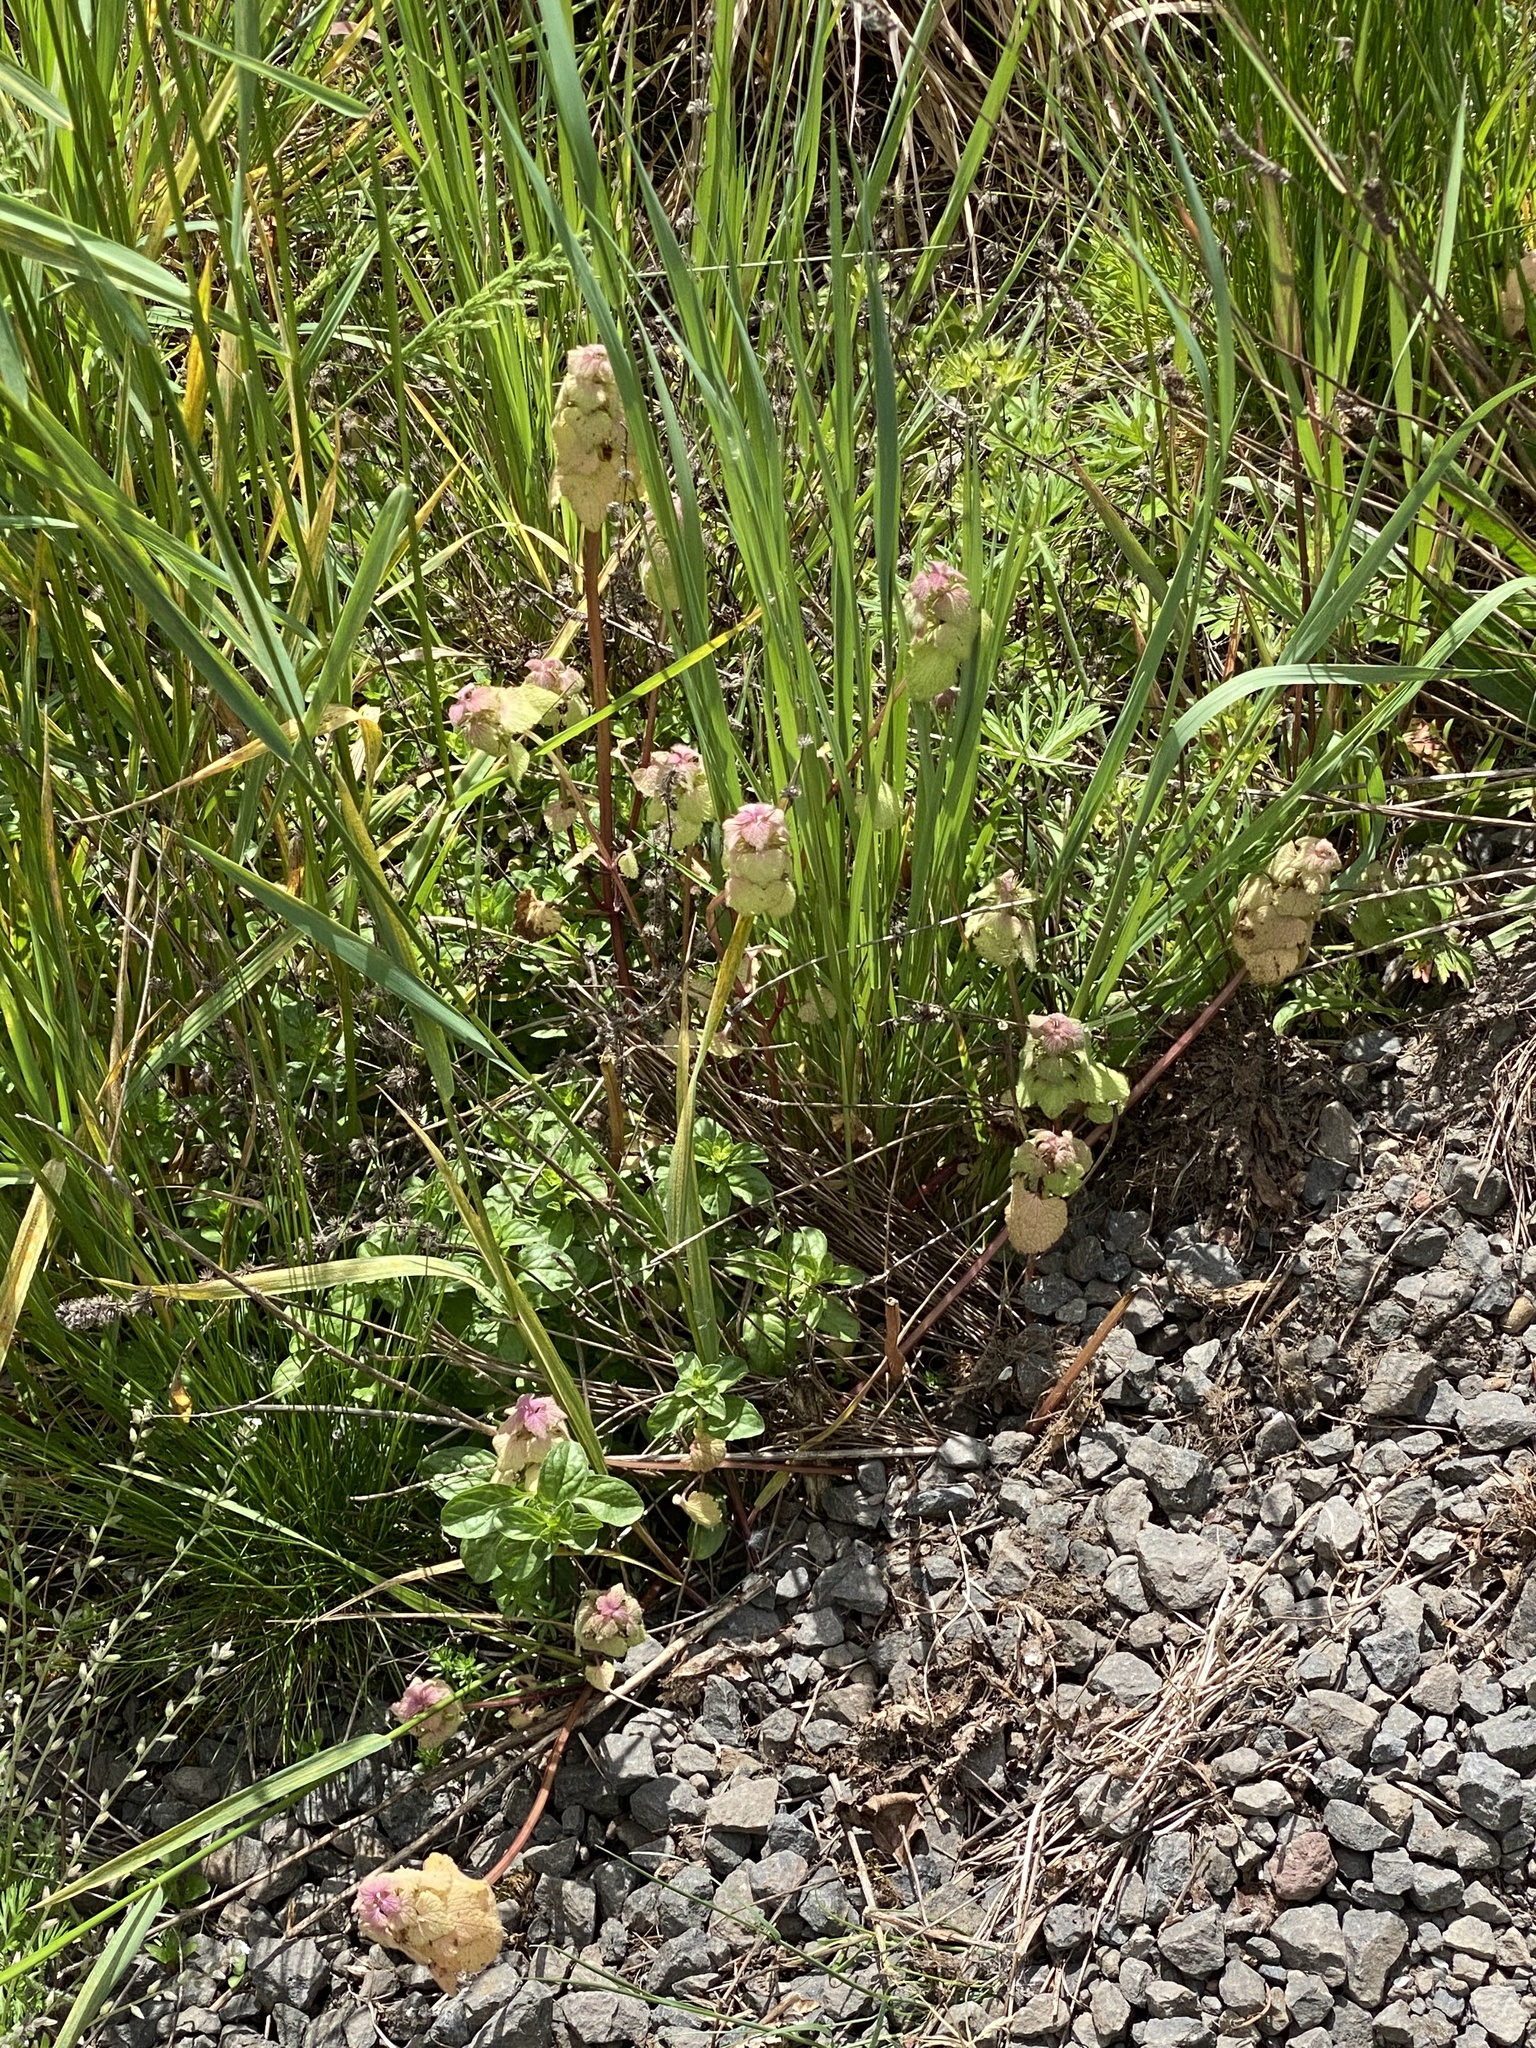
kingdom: Plantae
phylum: Tracheophyta
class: Magnoliopsida
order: Lamiales
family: Lamiaceae
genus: Lamium
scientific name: Lamium purpureum
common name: Red dead-nettle
